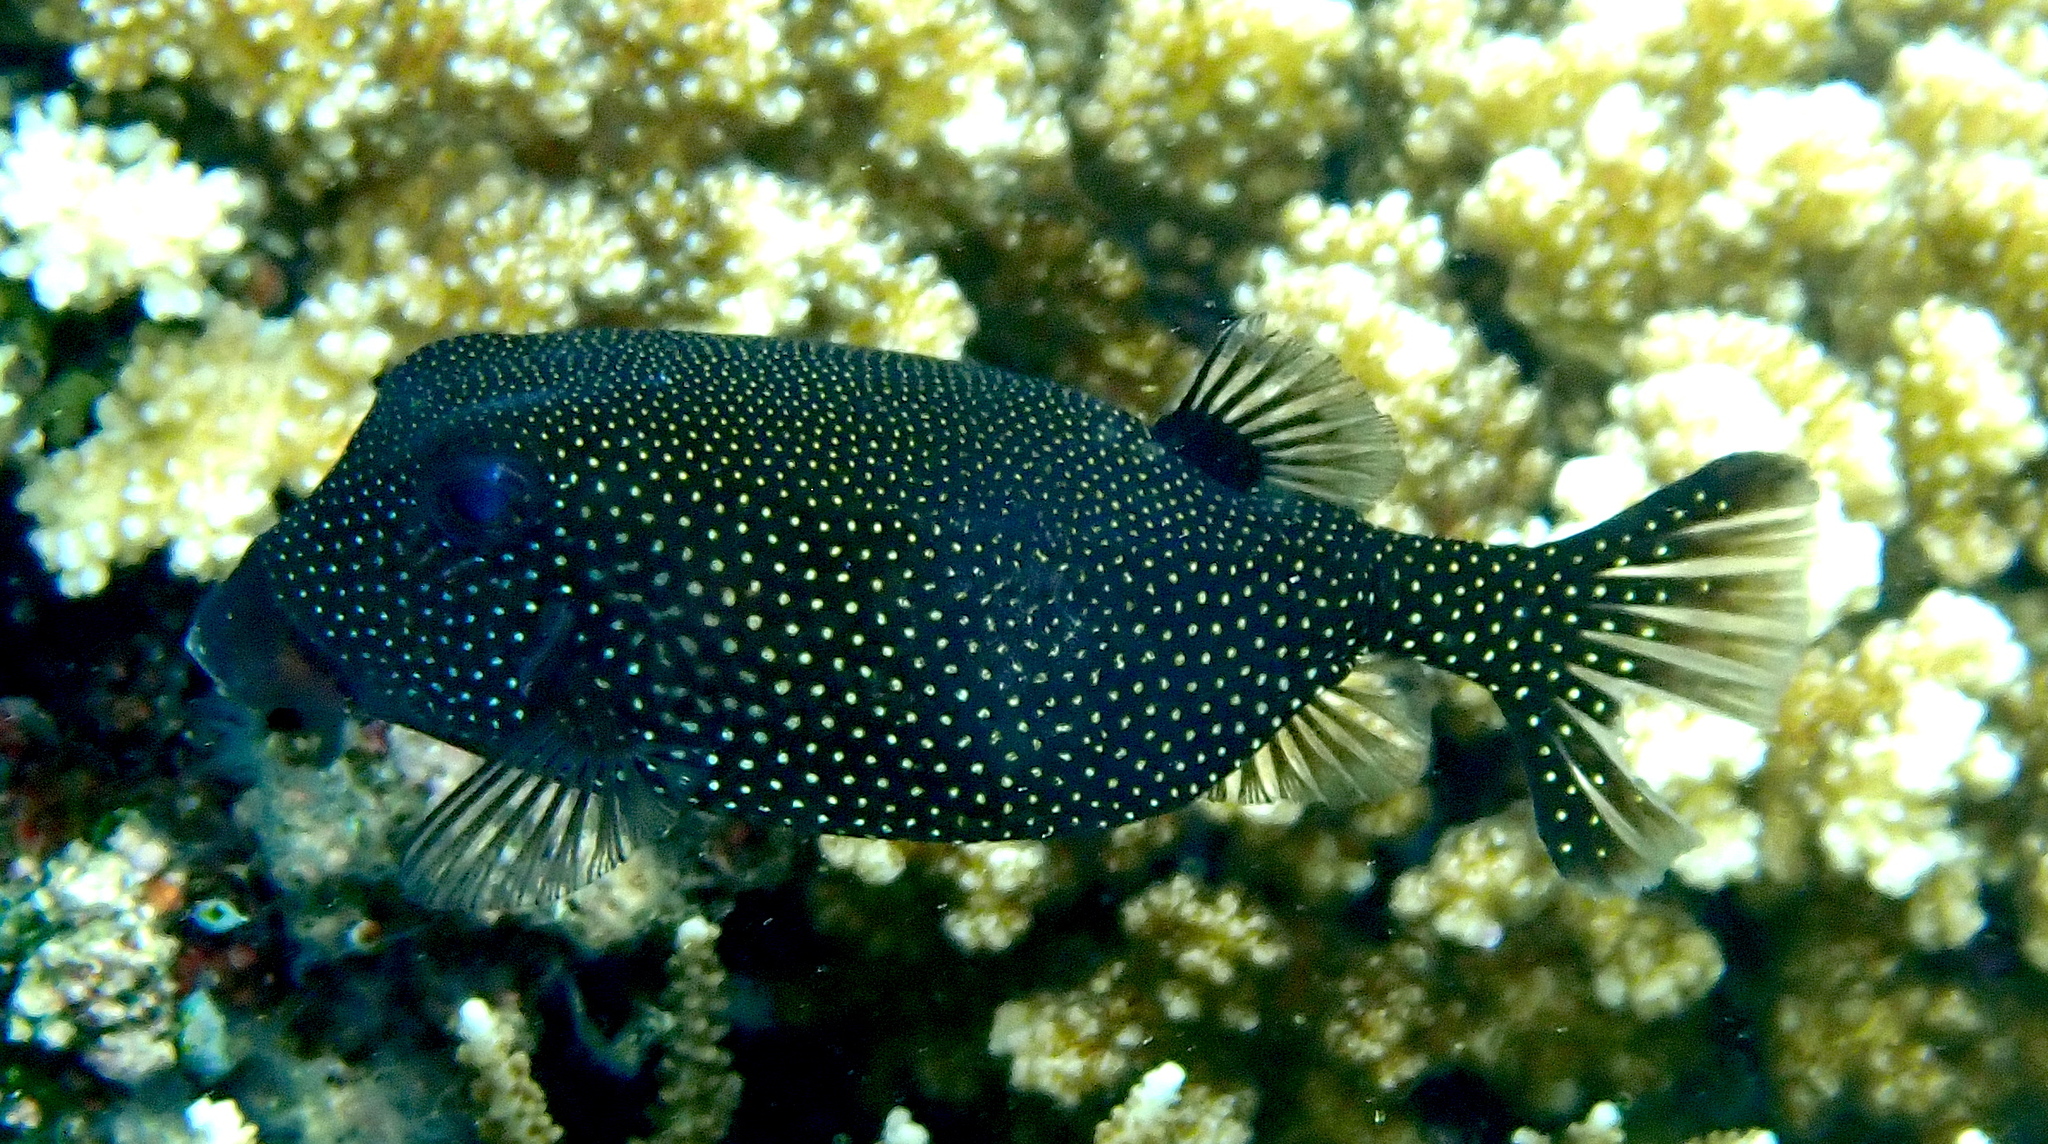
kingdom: Animalia
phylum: Chordata
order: Tetraodontiformes
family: Ostraciidae
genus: Ostracion
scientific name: Ostracion meleagris
